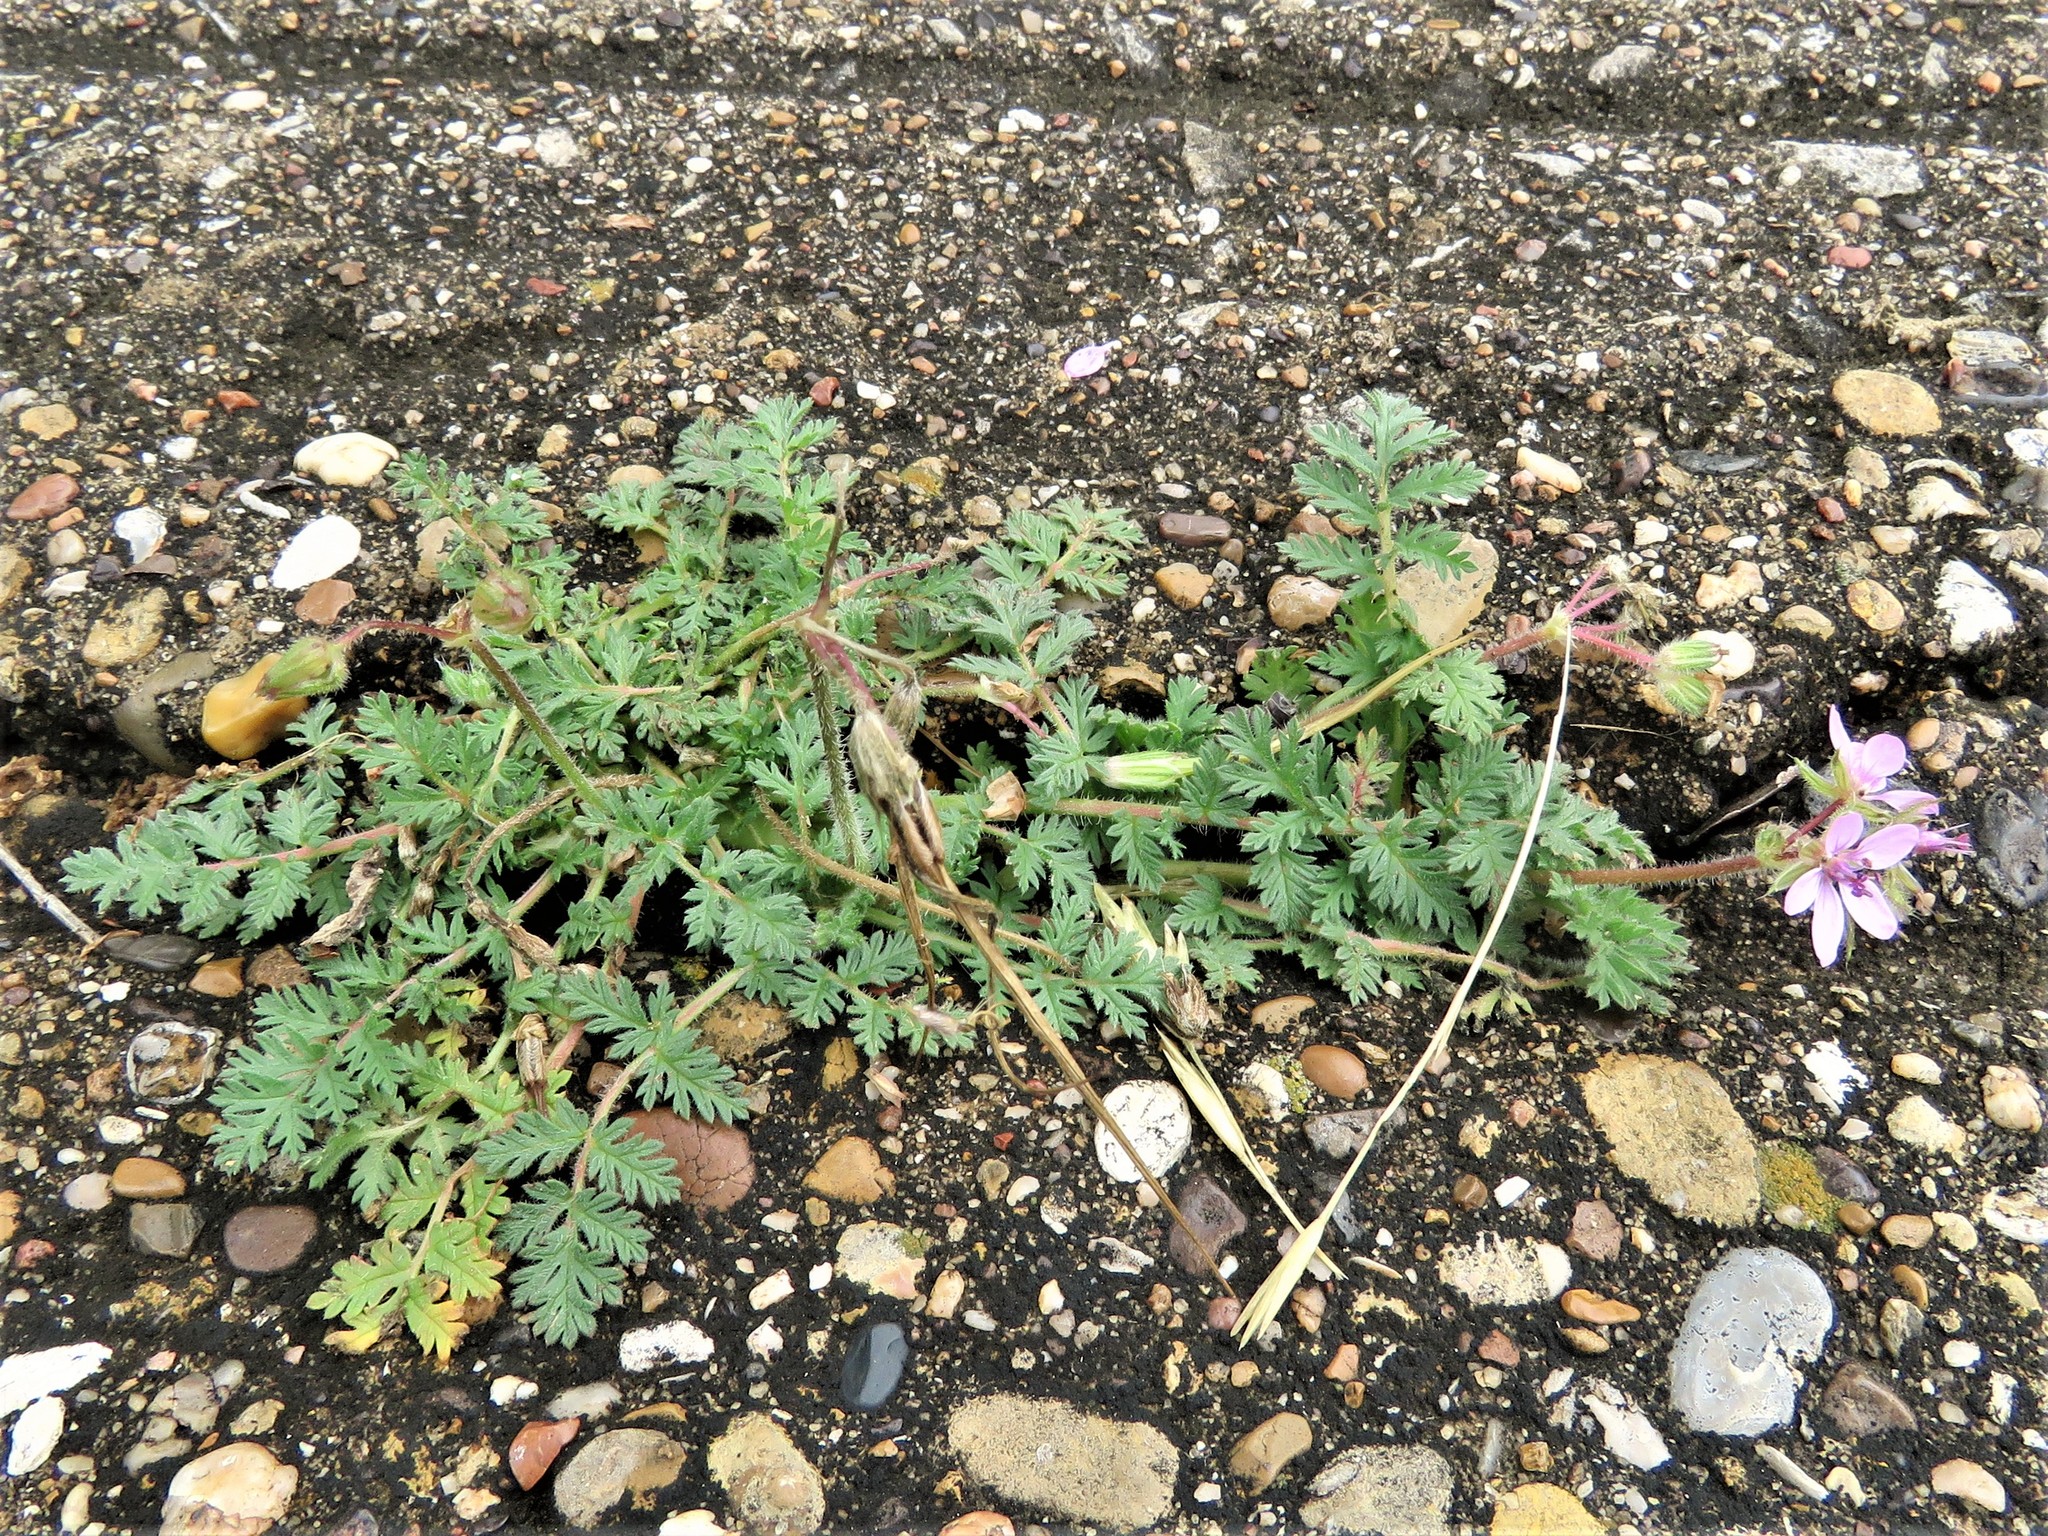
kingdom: Plantae
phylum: Tracheophyta
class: Magnoliopsida
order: Geraniales
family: Geraniaceae
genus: Erodium
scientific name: Erodium cicutarium
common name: Common stork's-bill
